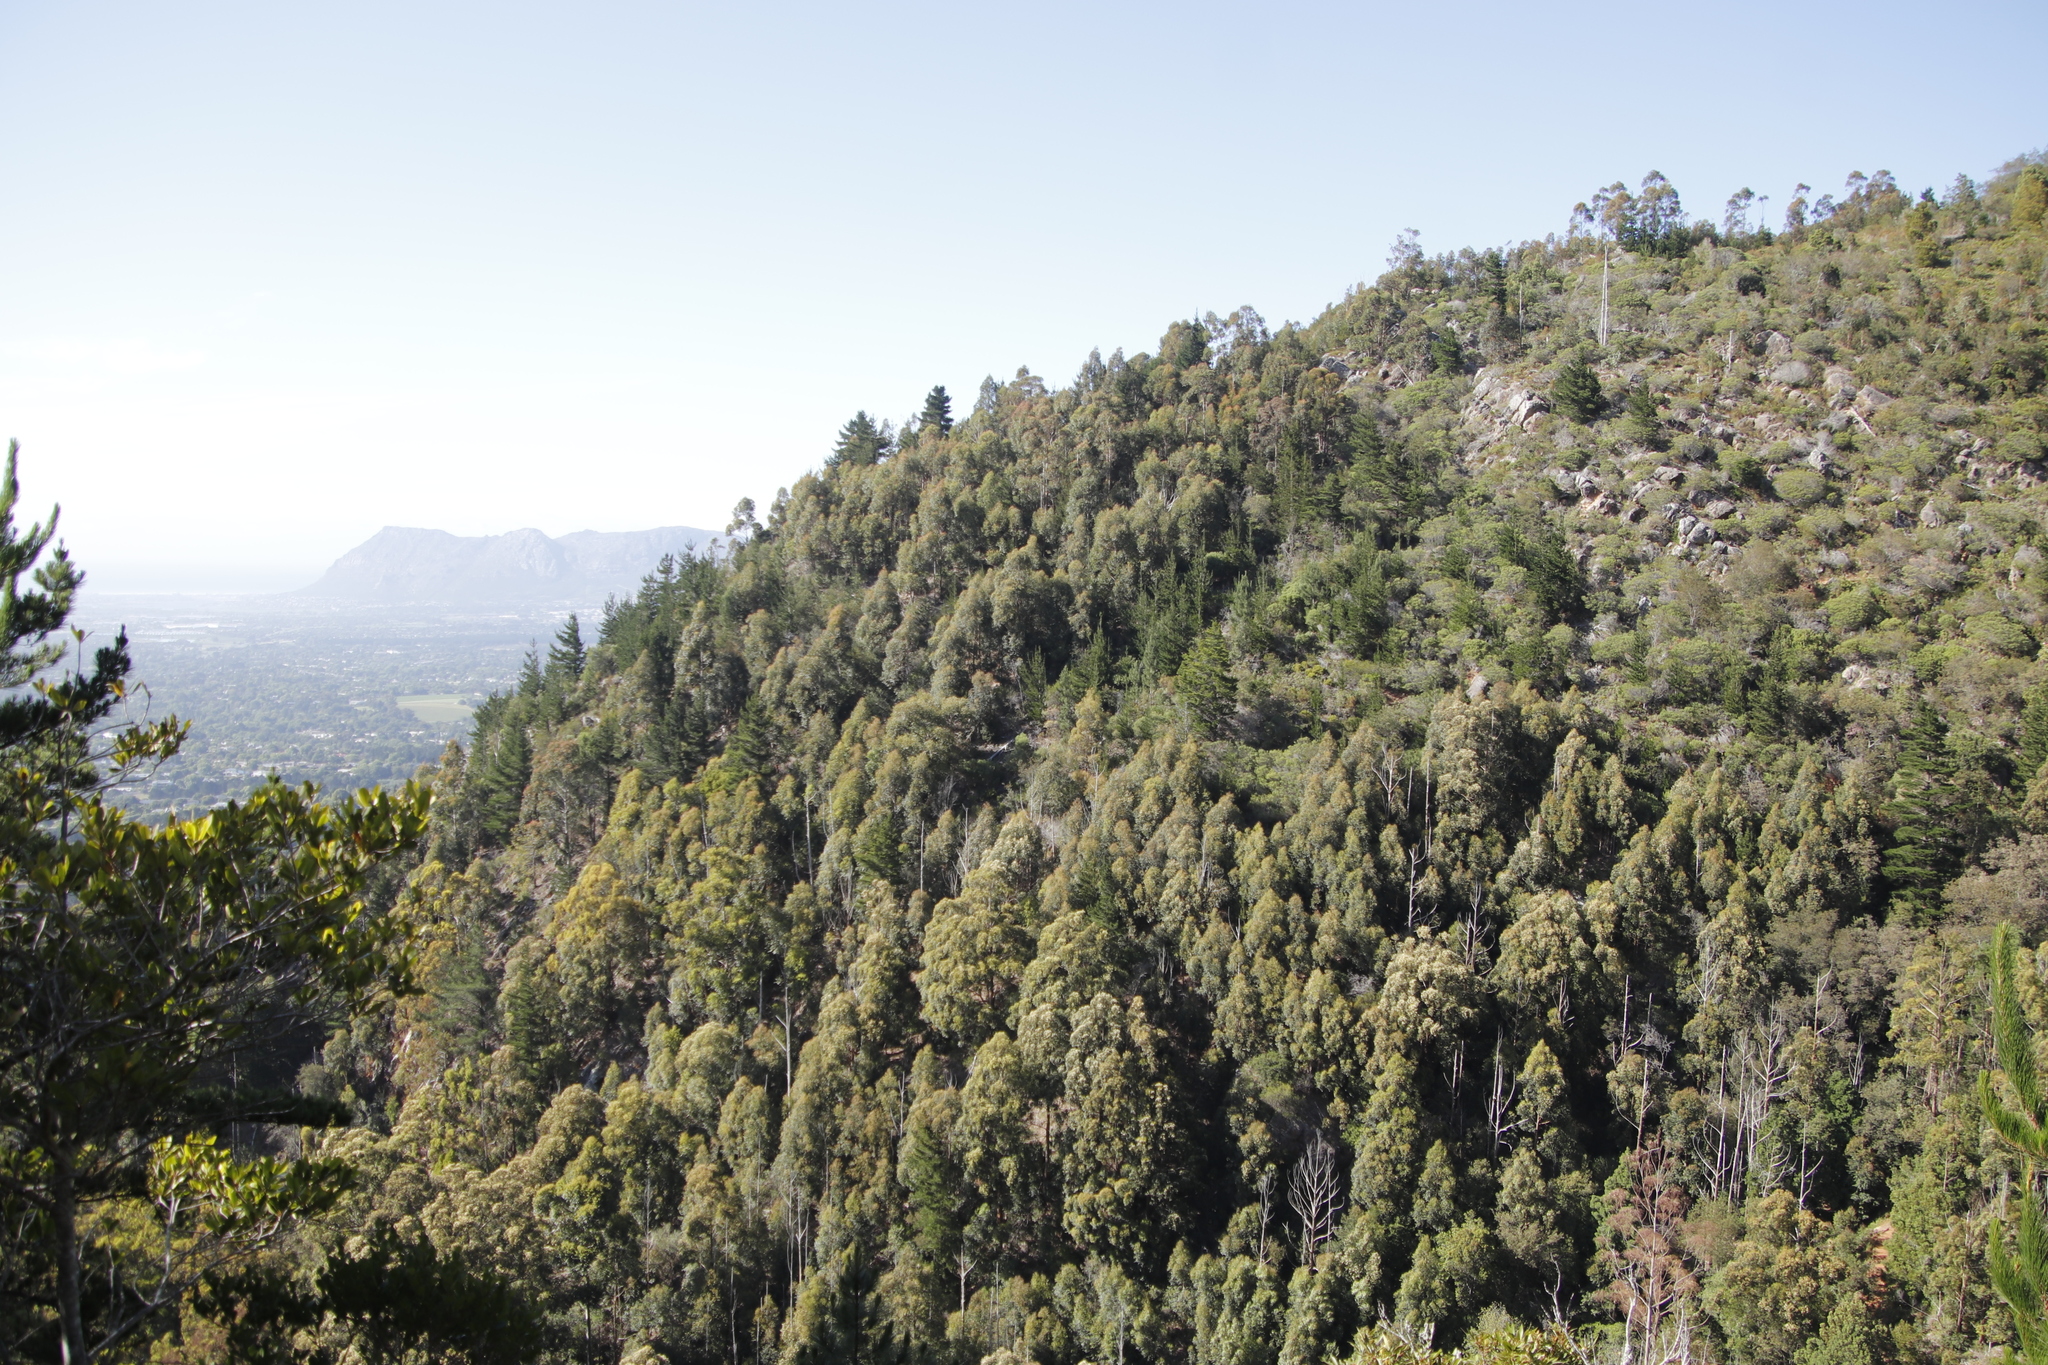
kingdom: Plantae
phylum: Tracheophyta
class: Magnoliopsida
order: Fabales
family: Fabaceae
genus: Acacia
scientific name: Acacia melanoxylon
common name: Blackwood
